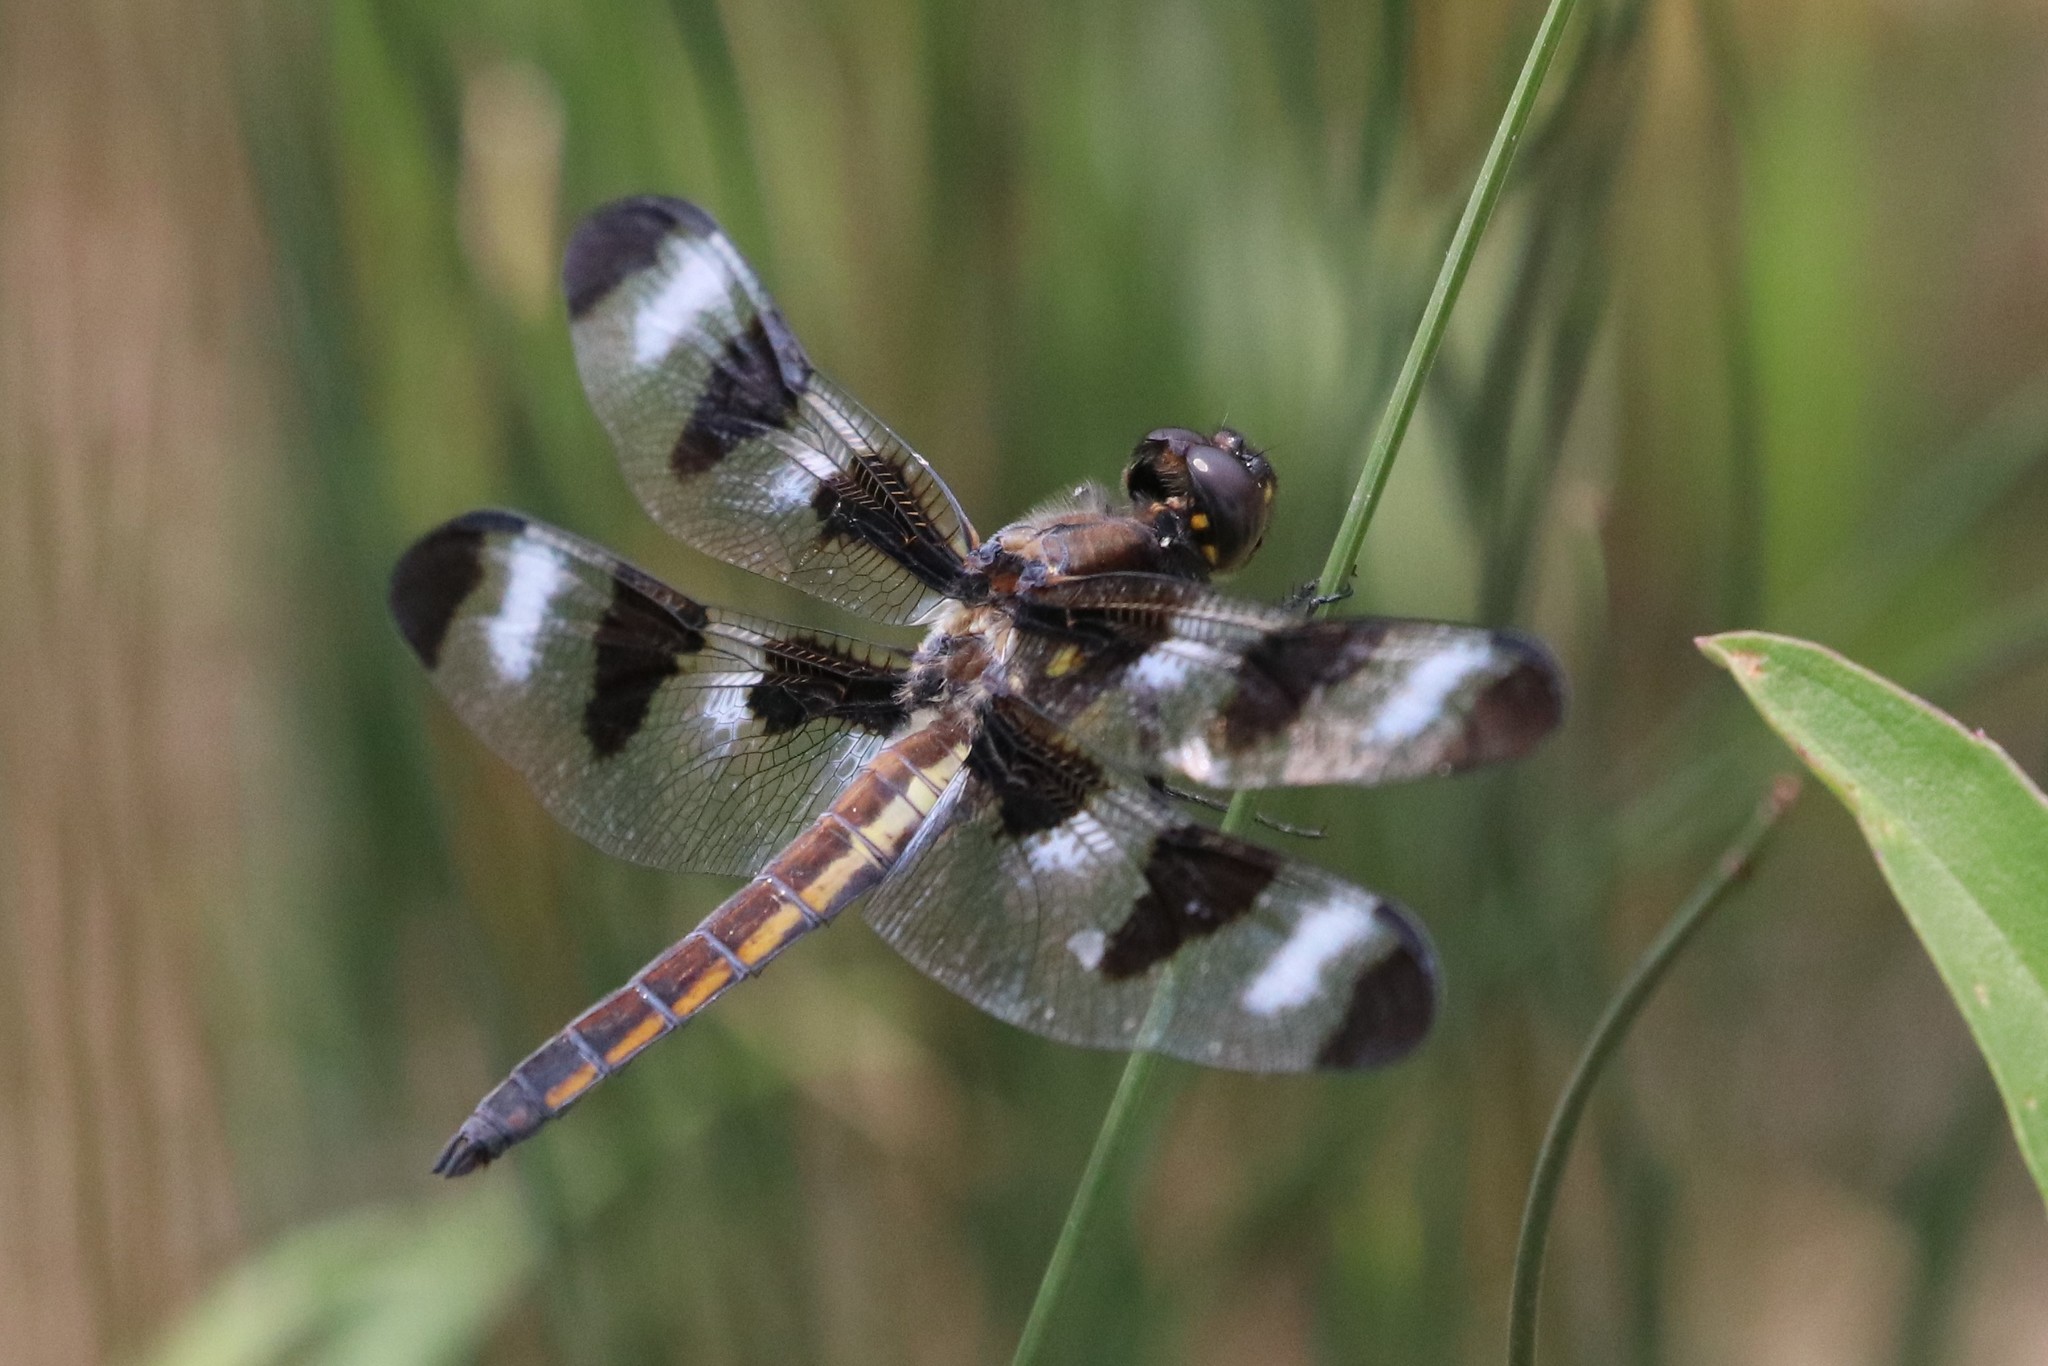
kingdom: Animalia
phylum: Arthropoda
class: Insecta
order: Odonata
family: Libellulidae
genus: Libellula
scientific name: Libellula pulchella
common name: Twelve-spotted skimmer
